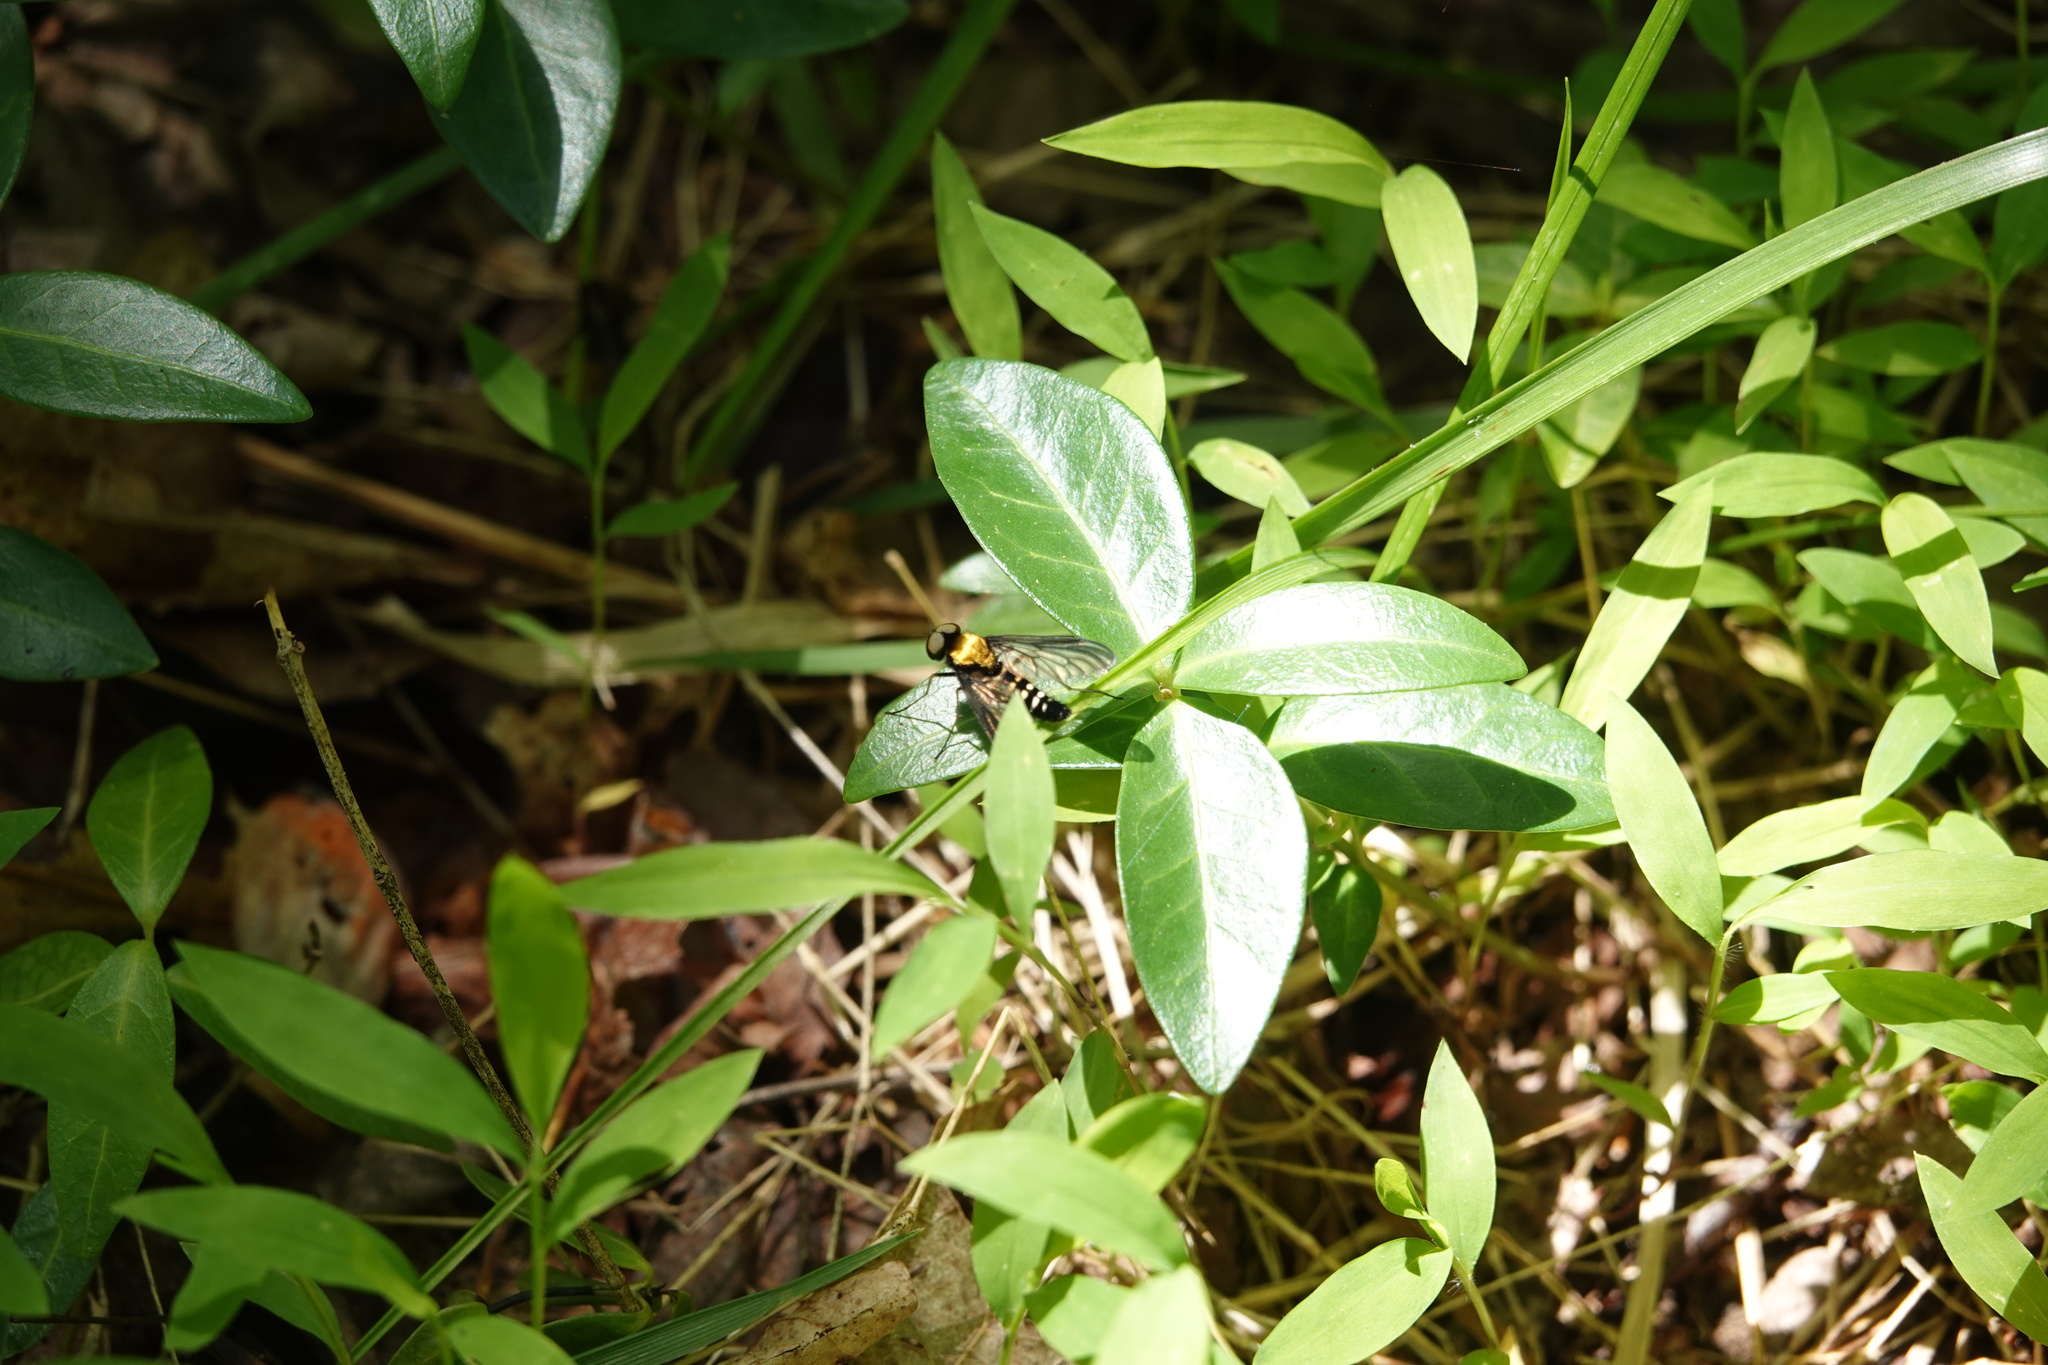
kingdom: Animalia
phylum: Arthropoda
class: Insecta
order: Diptera
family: Rhagionidae
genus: Chrysopilus
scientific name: Chrysopilus thoracicus
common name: Golden-backed snipe fly
